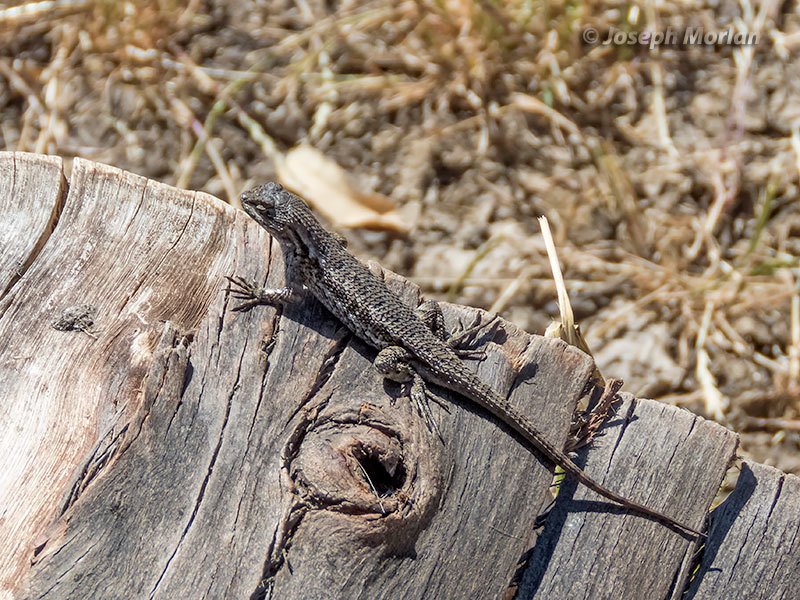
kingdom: Animalia
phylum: Chordata
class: Squamata
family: Phrynosomatidae
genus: Sceloporus
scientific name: Sceloporus occidentalis
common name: Western fence lizard
